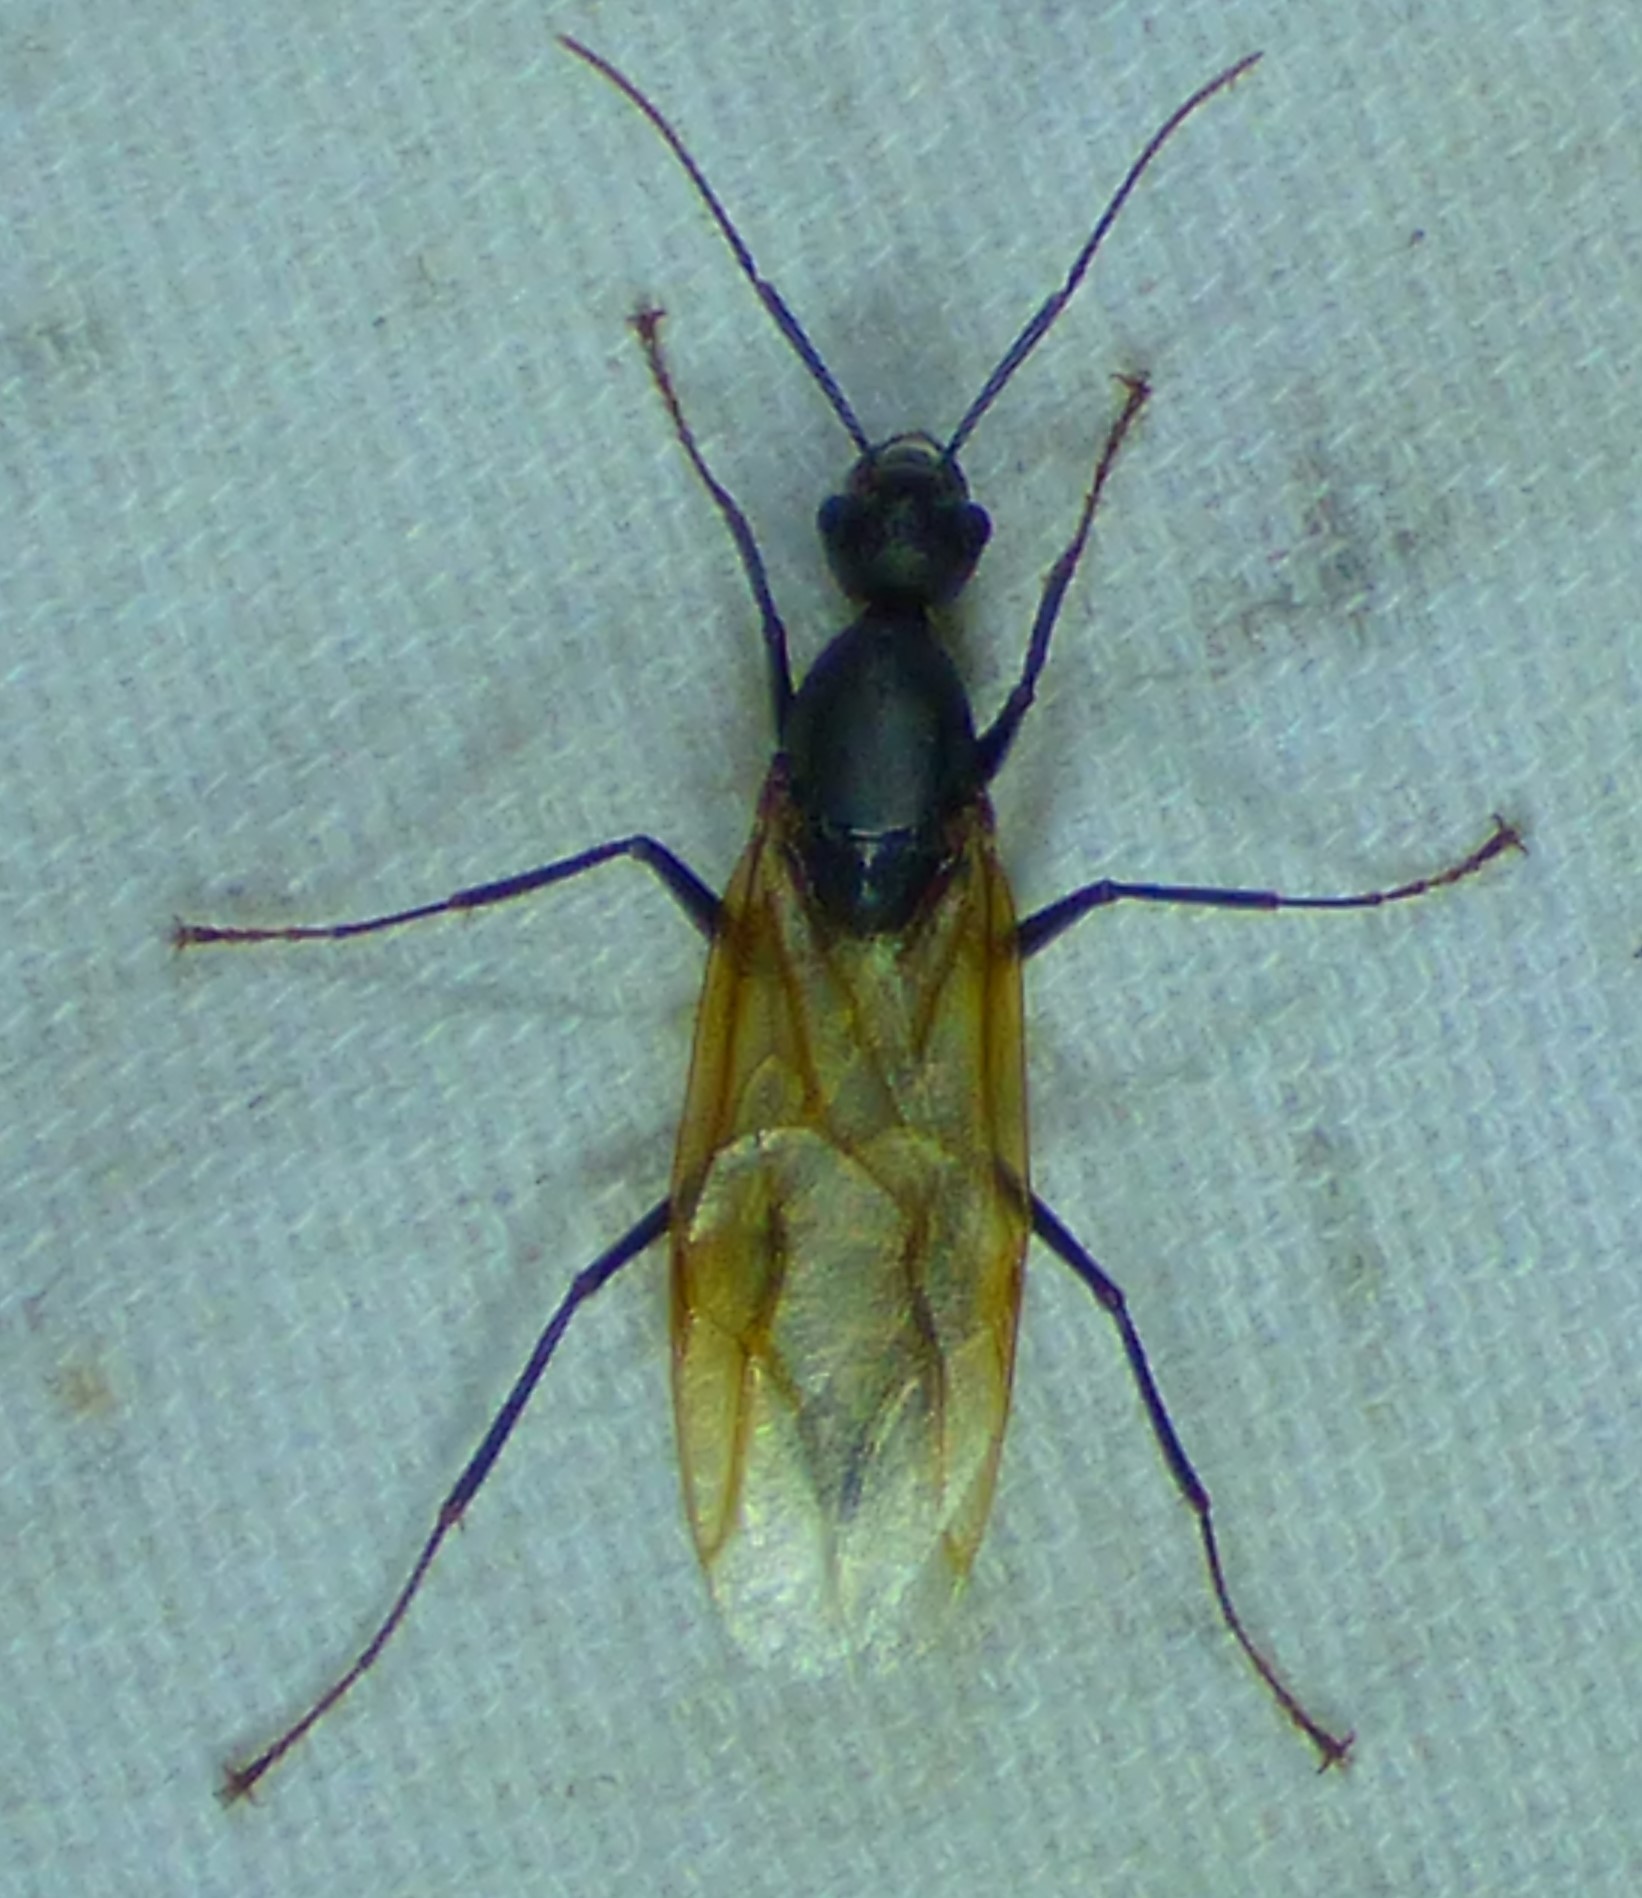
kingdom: Animalia
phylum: Arthropoda
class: Insecta
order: Hymenoptera
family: Formicidae
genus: Camponotus
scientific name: Camponotus pennsylvanicus
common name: Black carpenter ant
